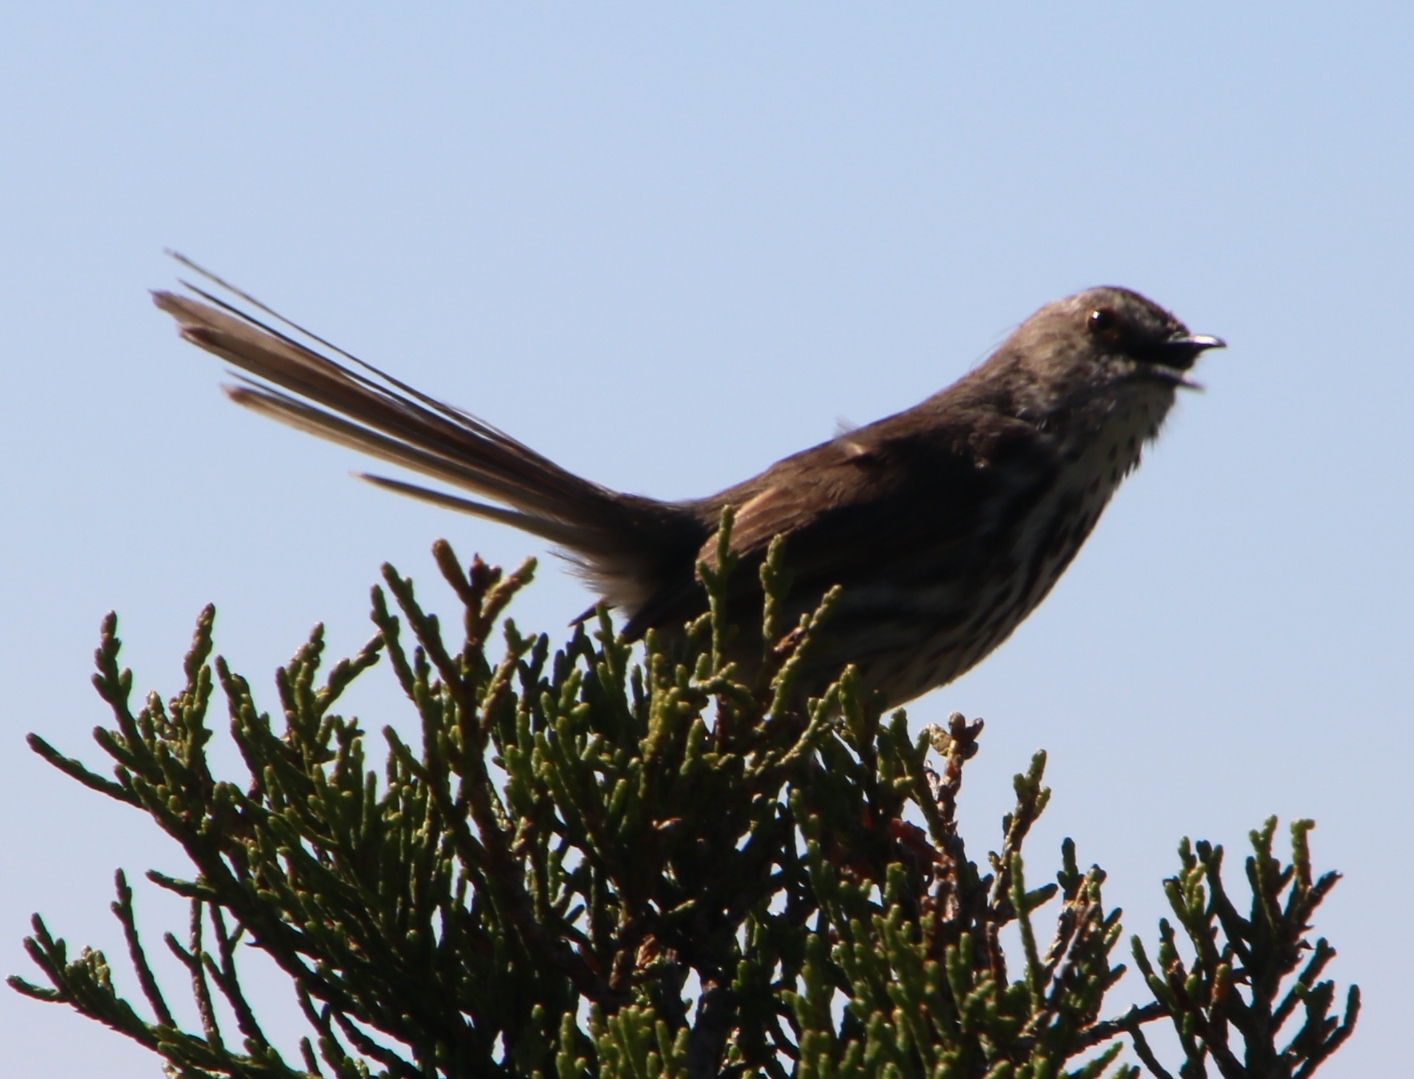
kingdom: Animalia
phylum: Chordata
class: Aves
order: Passeriformes
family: Cisticolidae
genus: Prinia
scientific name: Prinia maculosa
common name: Karoo prinia
